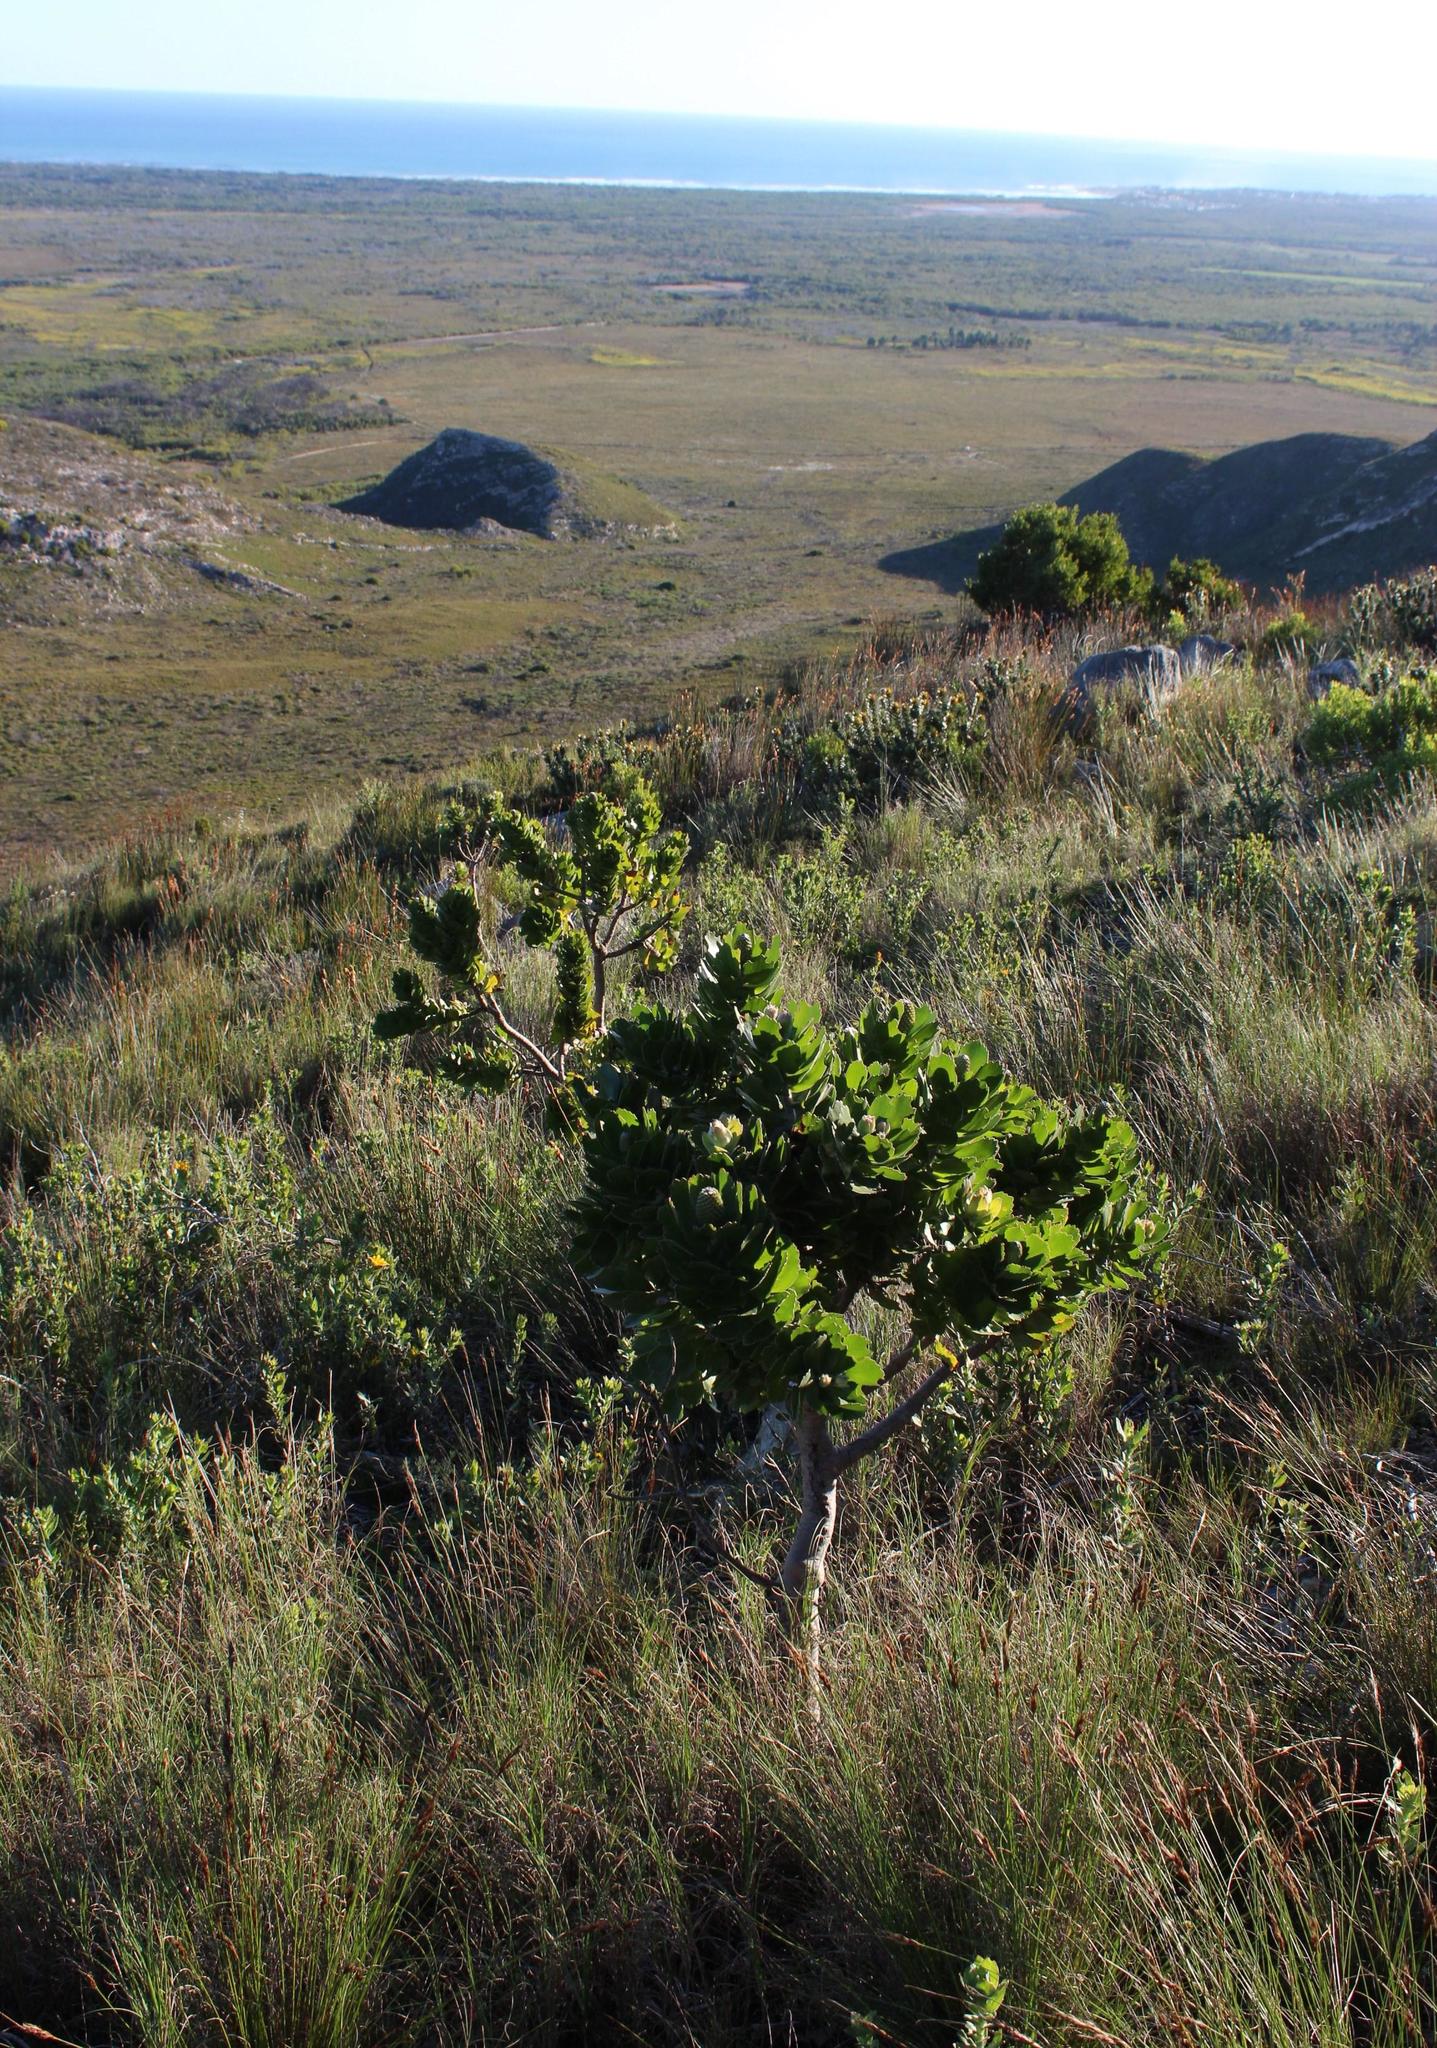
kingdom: Plantae
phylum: Tracheophyta
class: Magnoliopsida
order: Proteales
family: Proteaceae
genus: Leucospermum
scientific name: Leucospermum patersonii
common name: False tree pincushion
